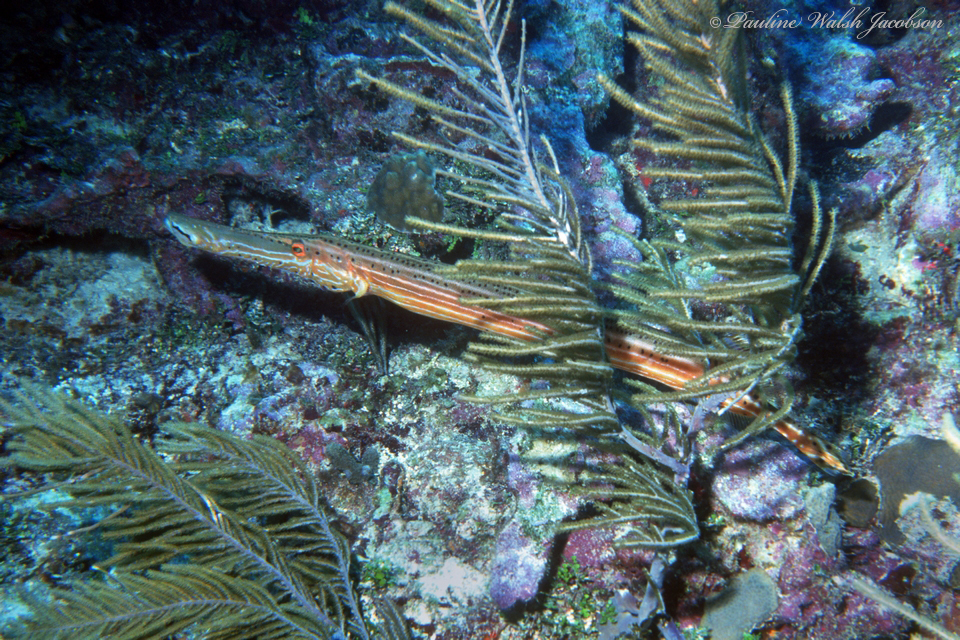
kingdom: Animalia
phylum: Chordata
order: Syngnathiformes
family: Aulostomidae
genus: Aulostomus
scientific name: Aulostomus maculatus
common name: West atlantic trumpetfish
